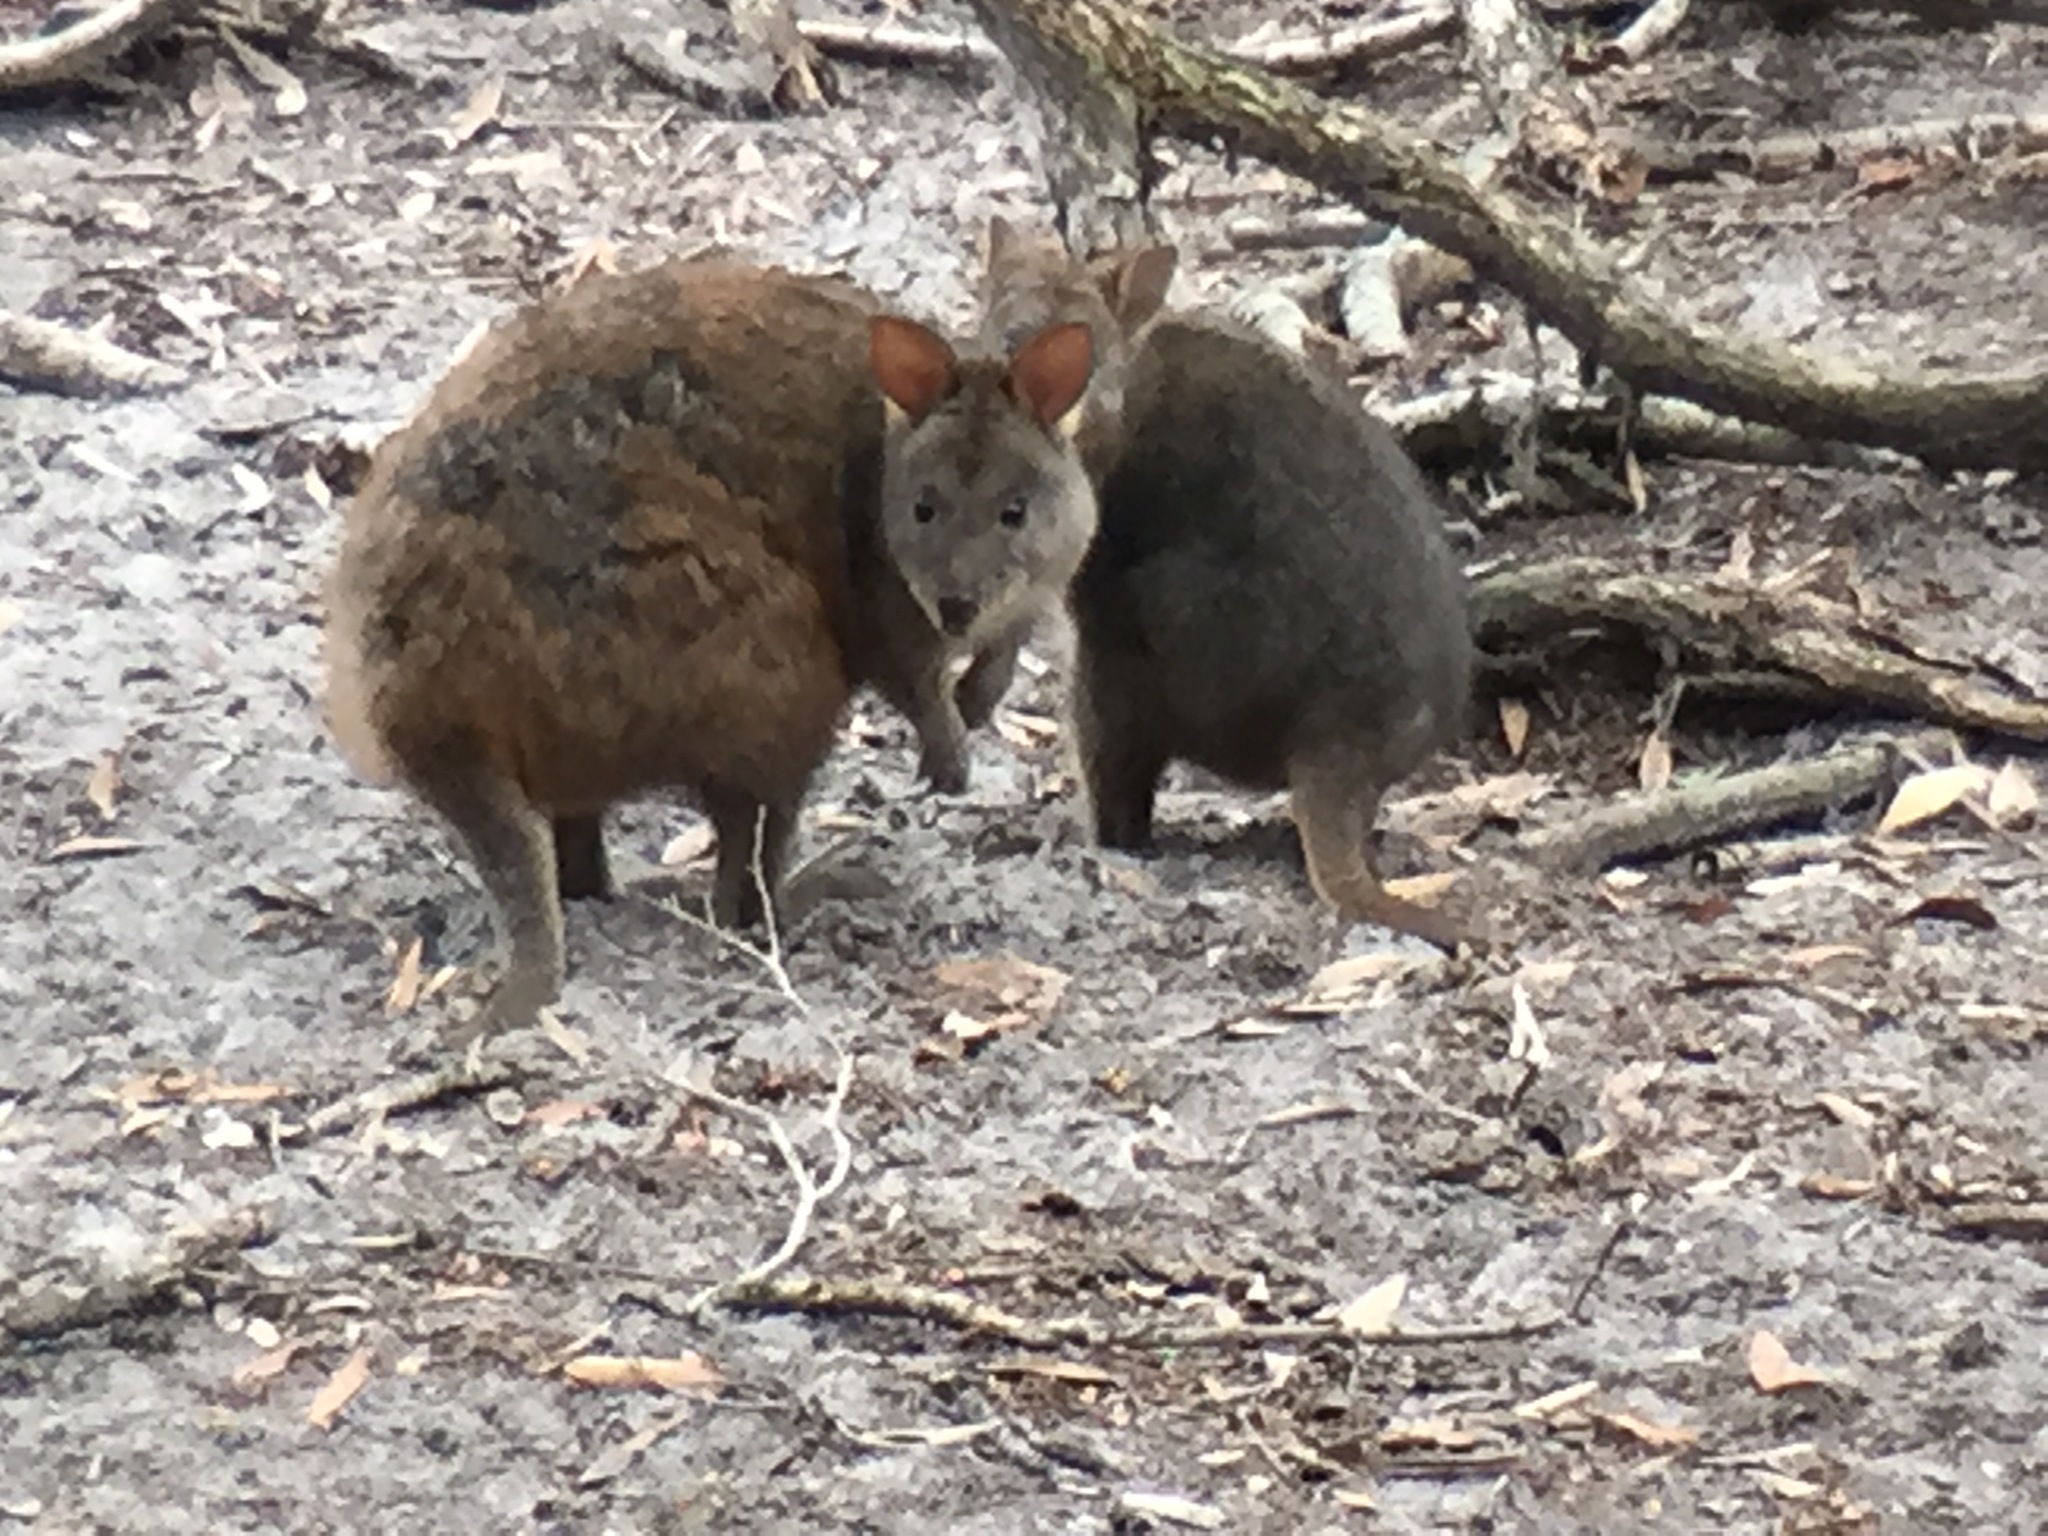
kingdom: Animalia
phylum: Chordata
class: Mammalia
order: Diprotodontia
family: Macropodidae
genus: Thylogale
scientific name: Thylogale billardierii
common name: Tasmanian pademelon
